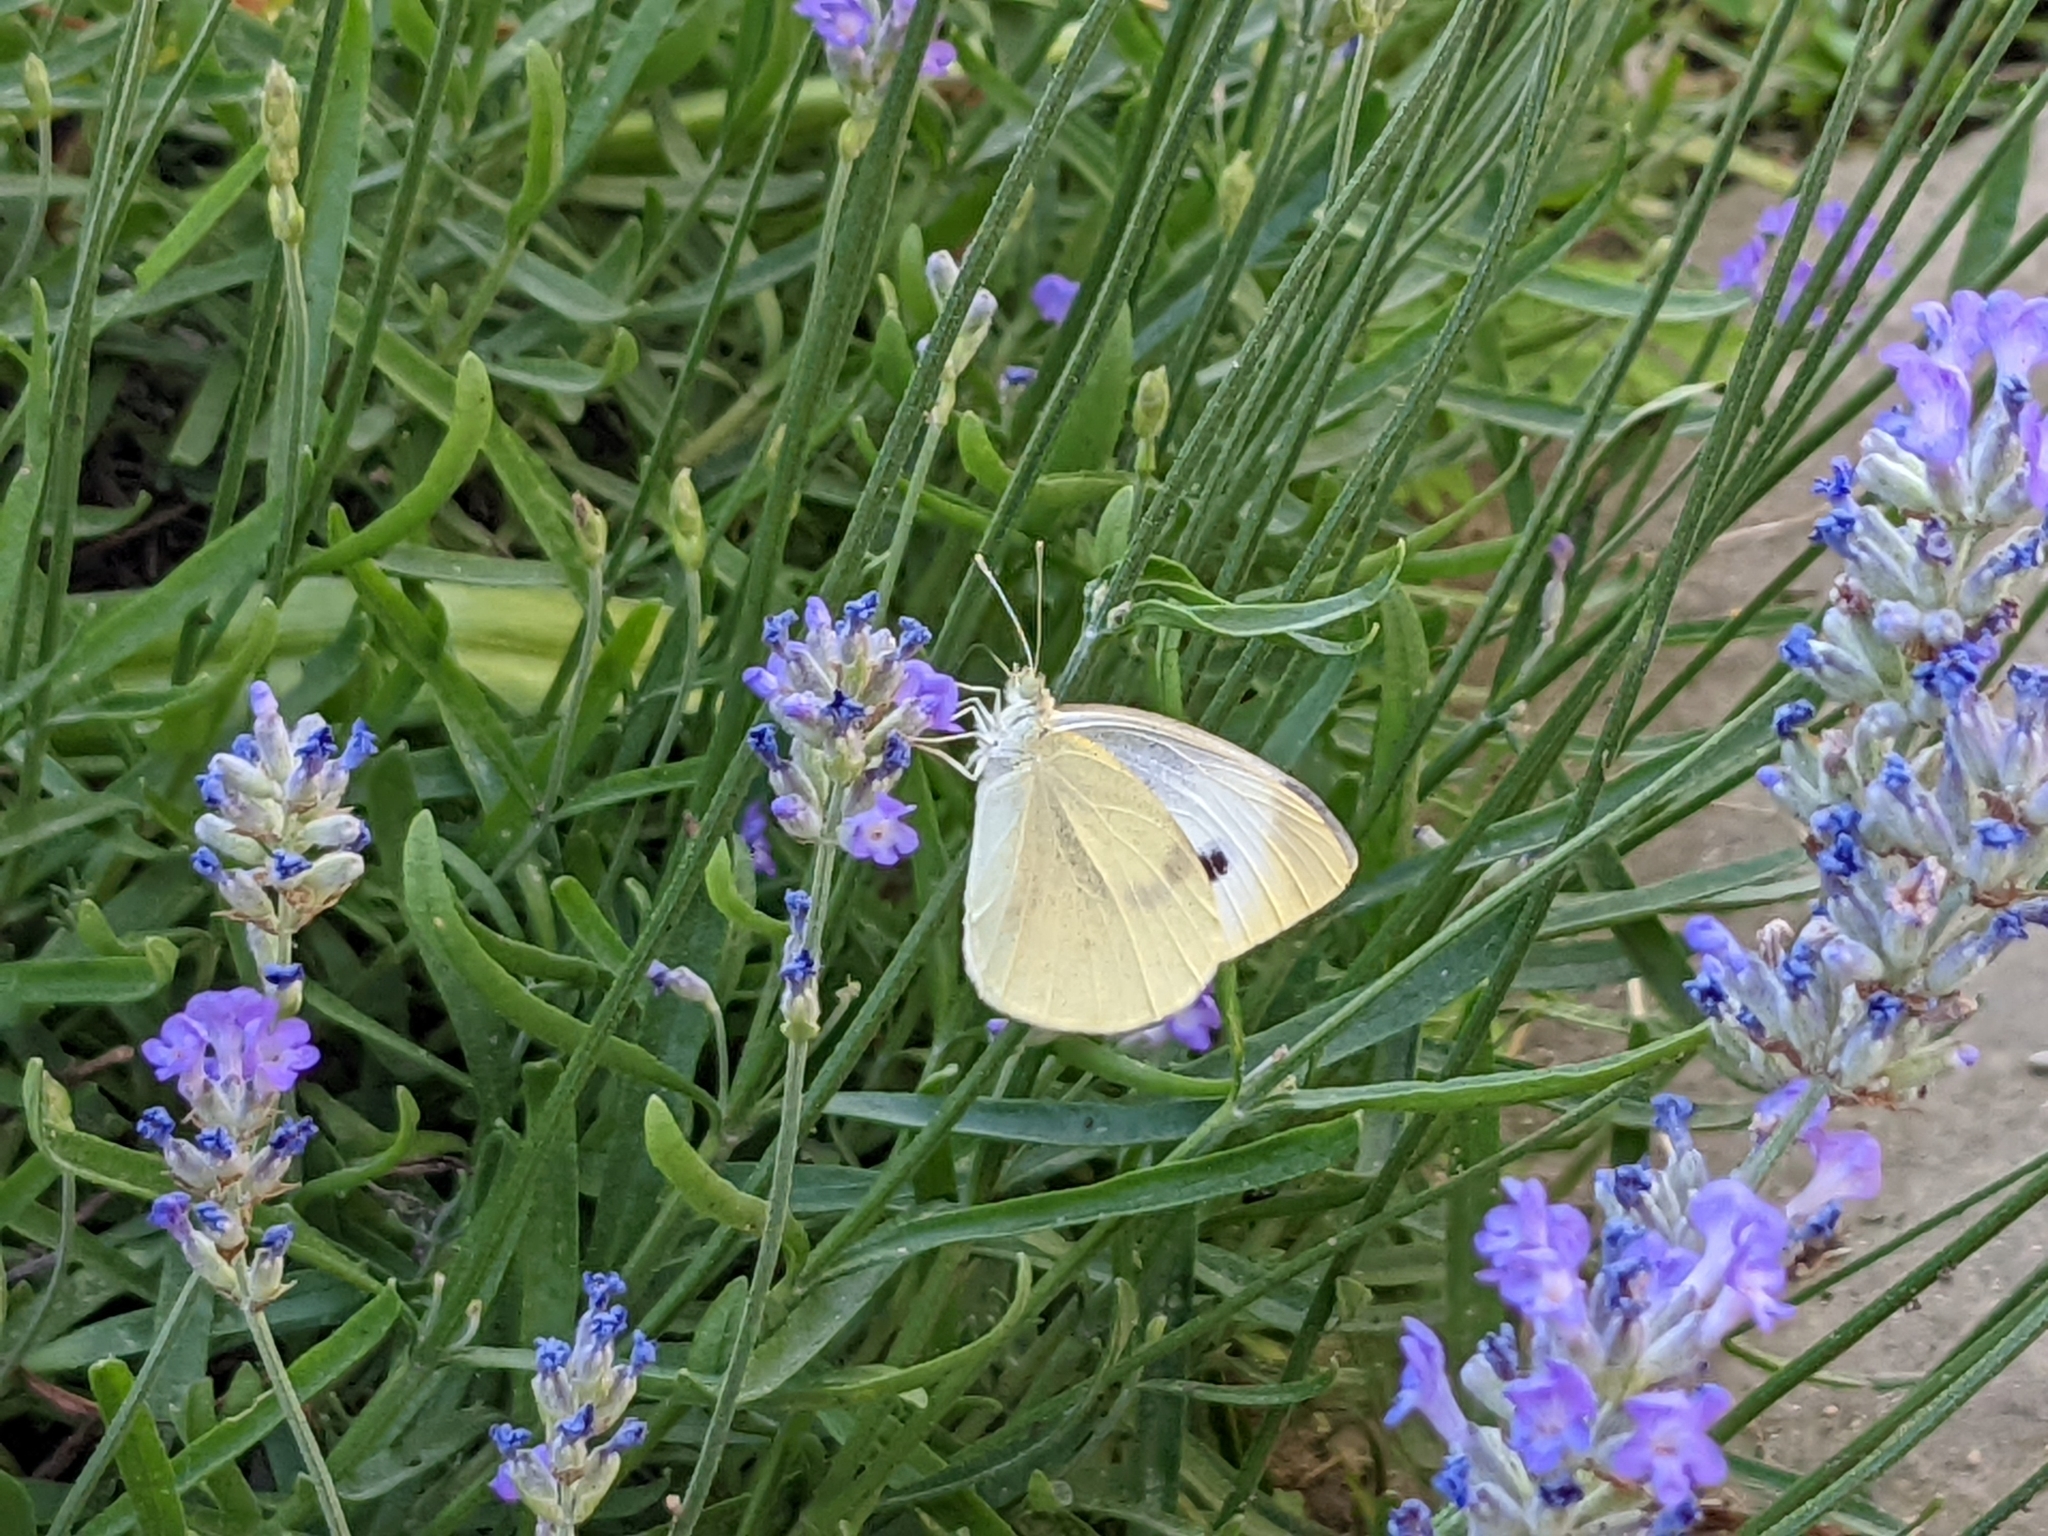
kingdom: Animalia
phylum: Arthropoda
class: Insecta
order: Lepidoptera
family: Pieridae
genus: Pieris
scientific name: Pieris rapae
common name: Small white
